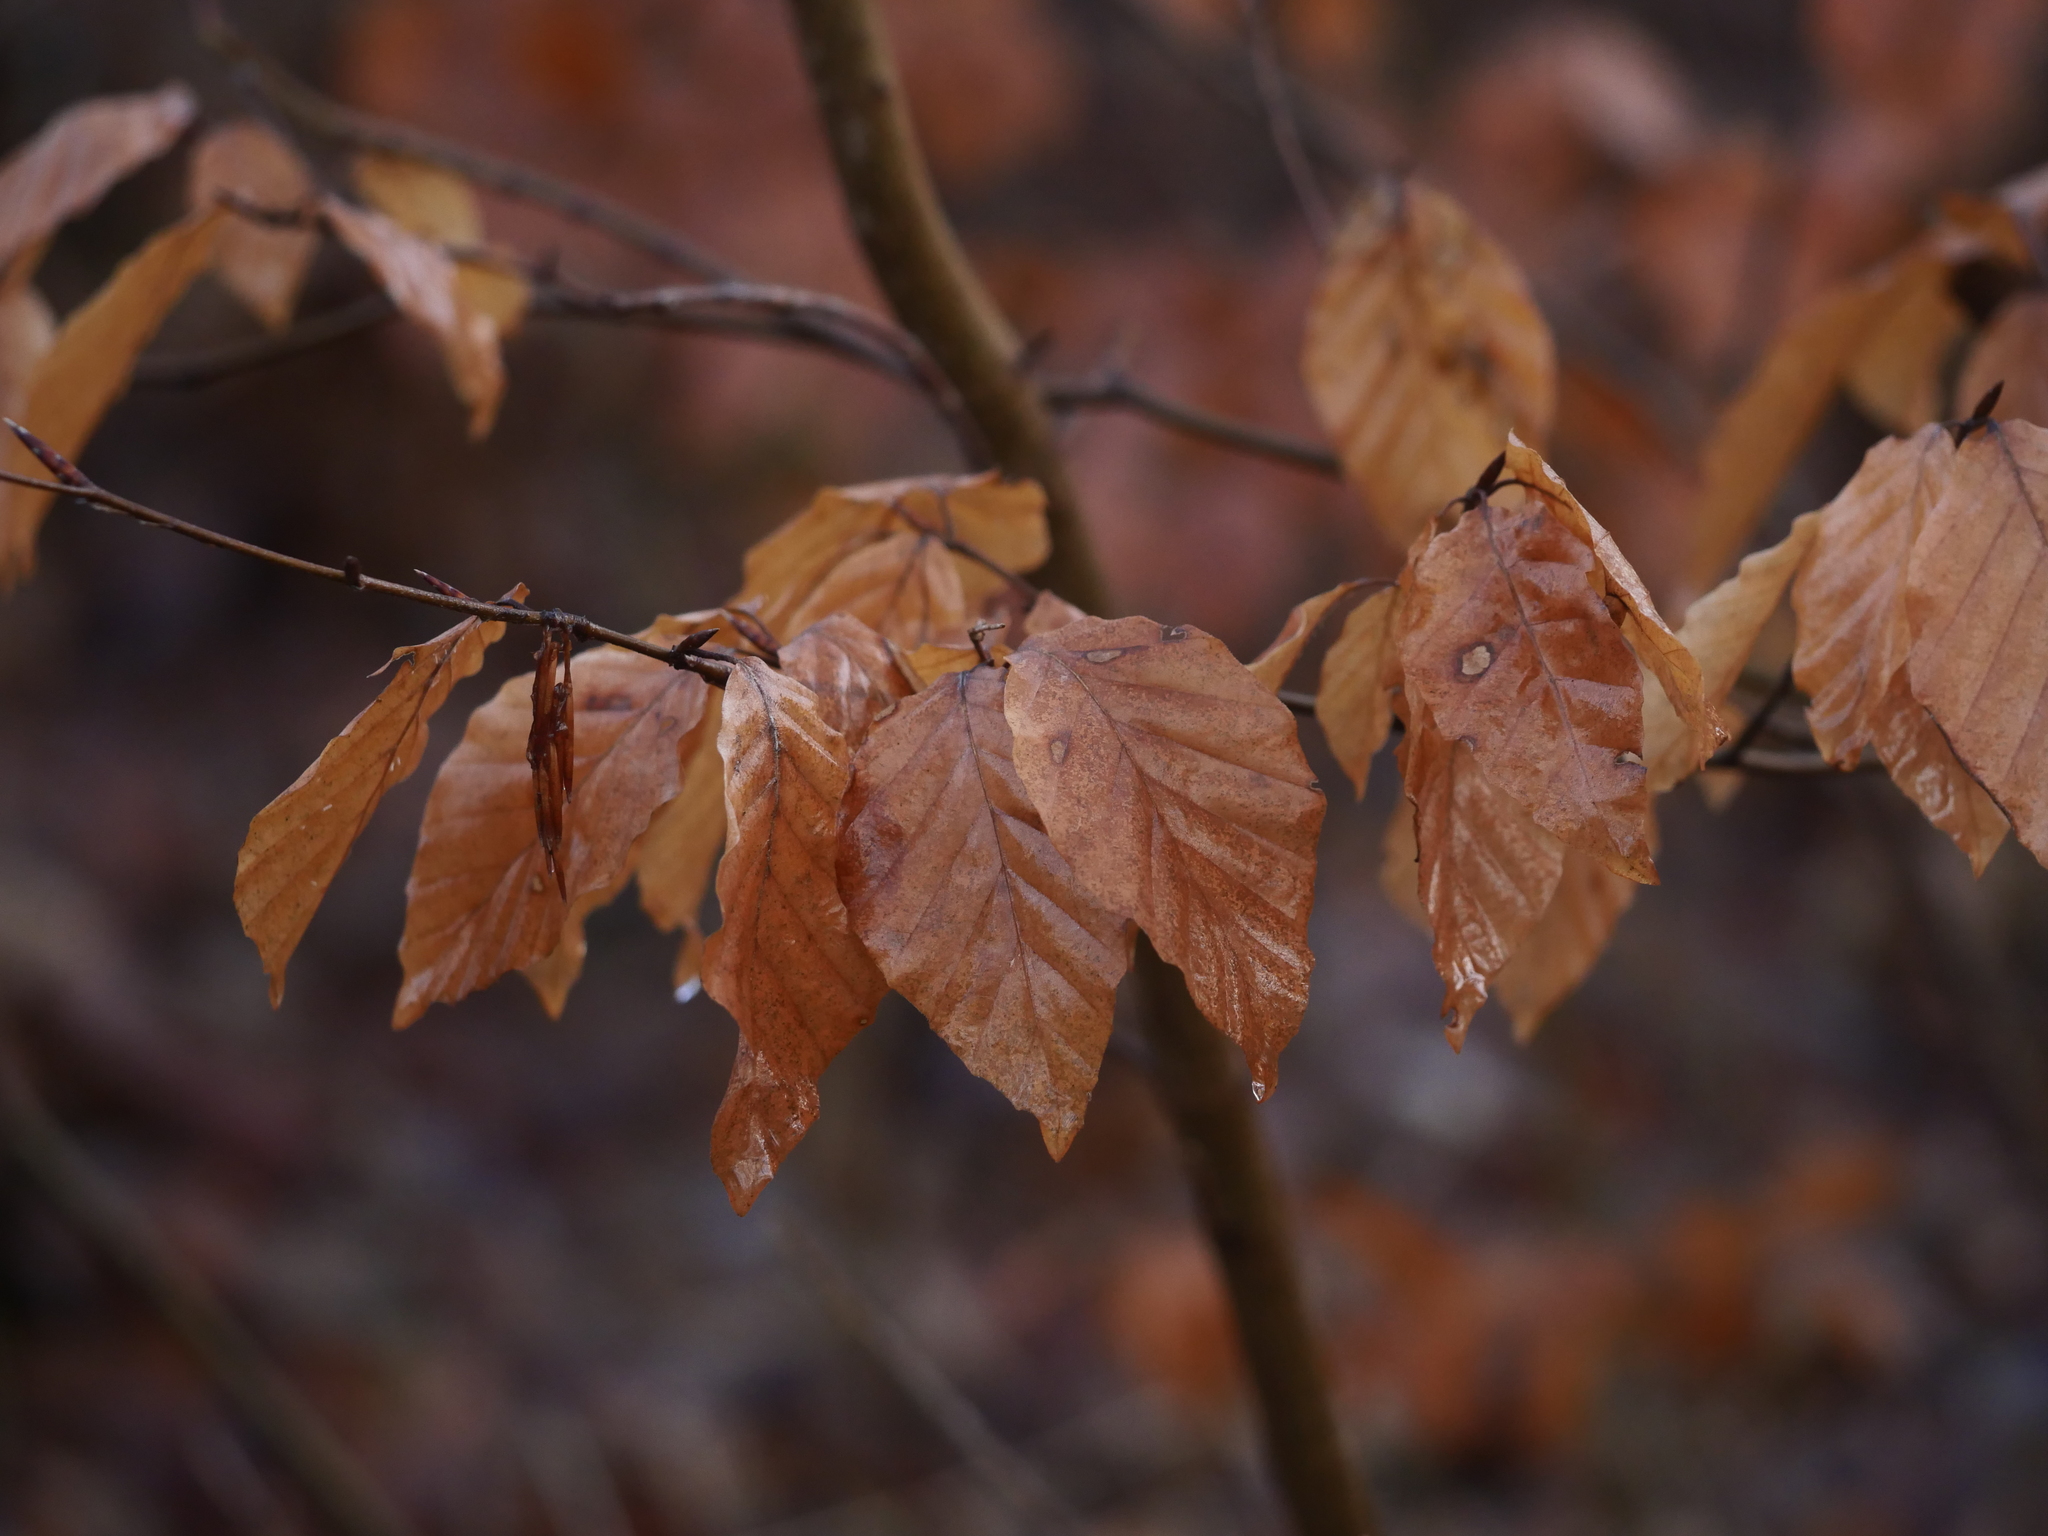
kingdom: Plantae
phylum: Tracheophyta
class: Magnoliopsida
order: Fagales
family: Fagaceae
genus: Fagus
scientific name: Fagus sylvatica
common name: Beech
